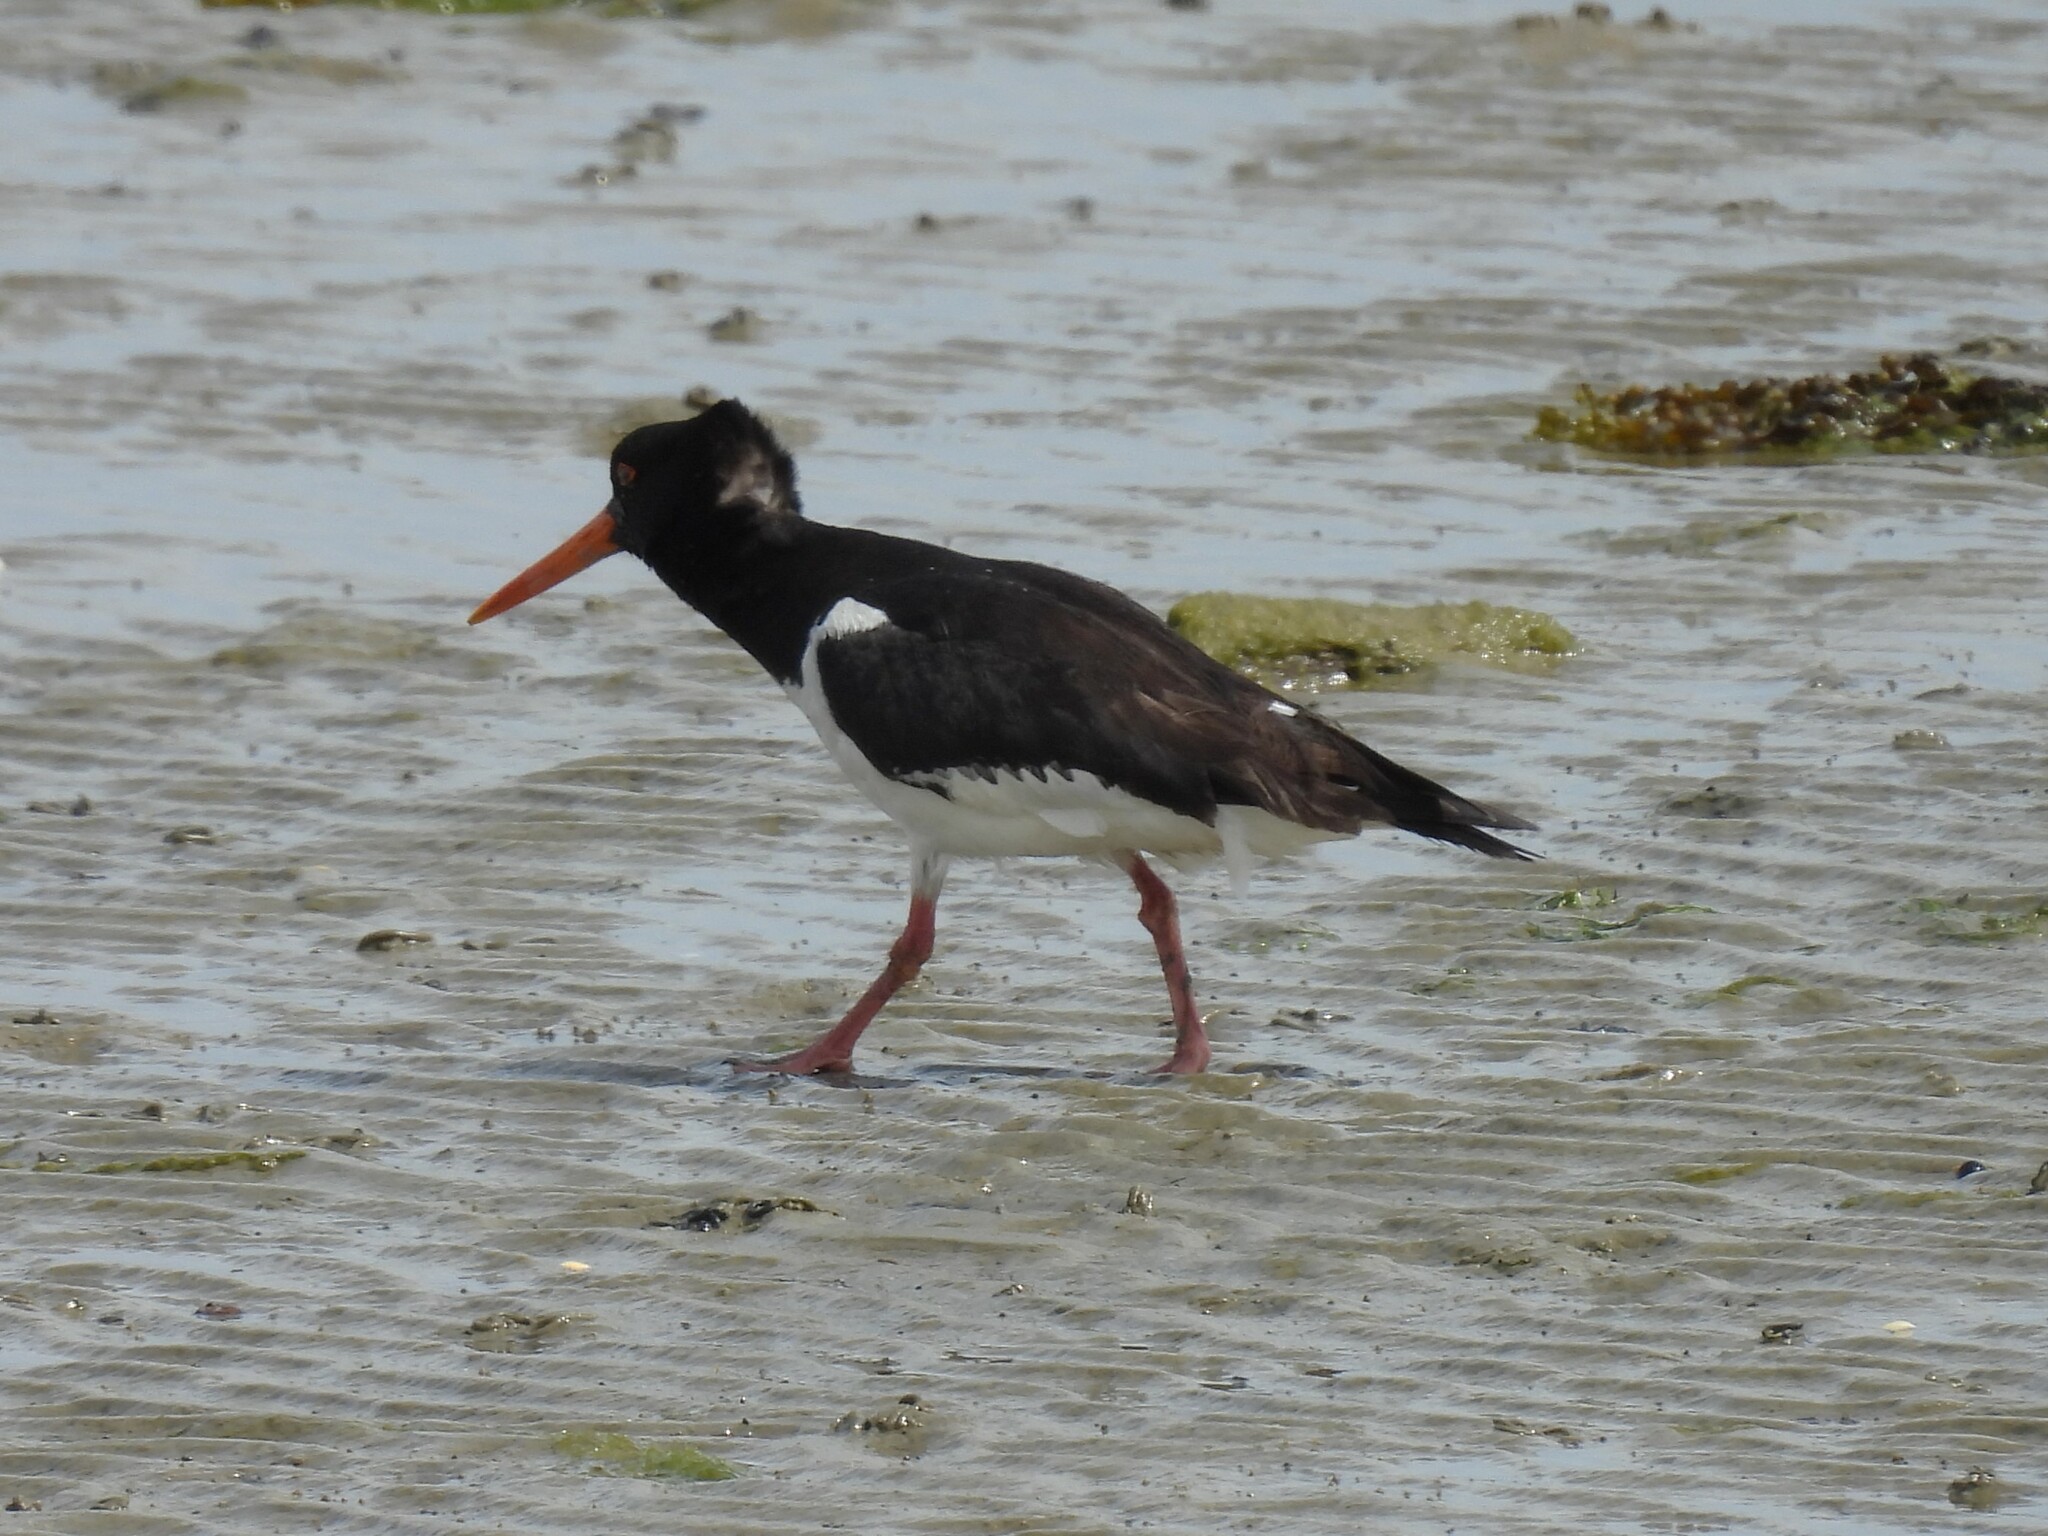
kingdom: Animalia
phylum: Chordata
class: Aves
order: Charadriiformes
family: Haematopodidae
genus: Haematopus
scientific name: Haematopus ostralegus
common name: Eurasian oystercatcher
